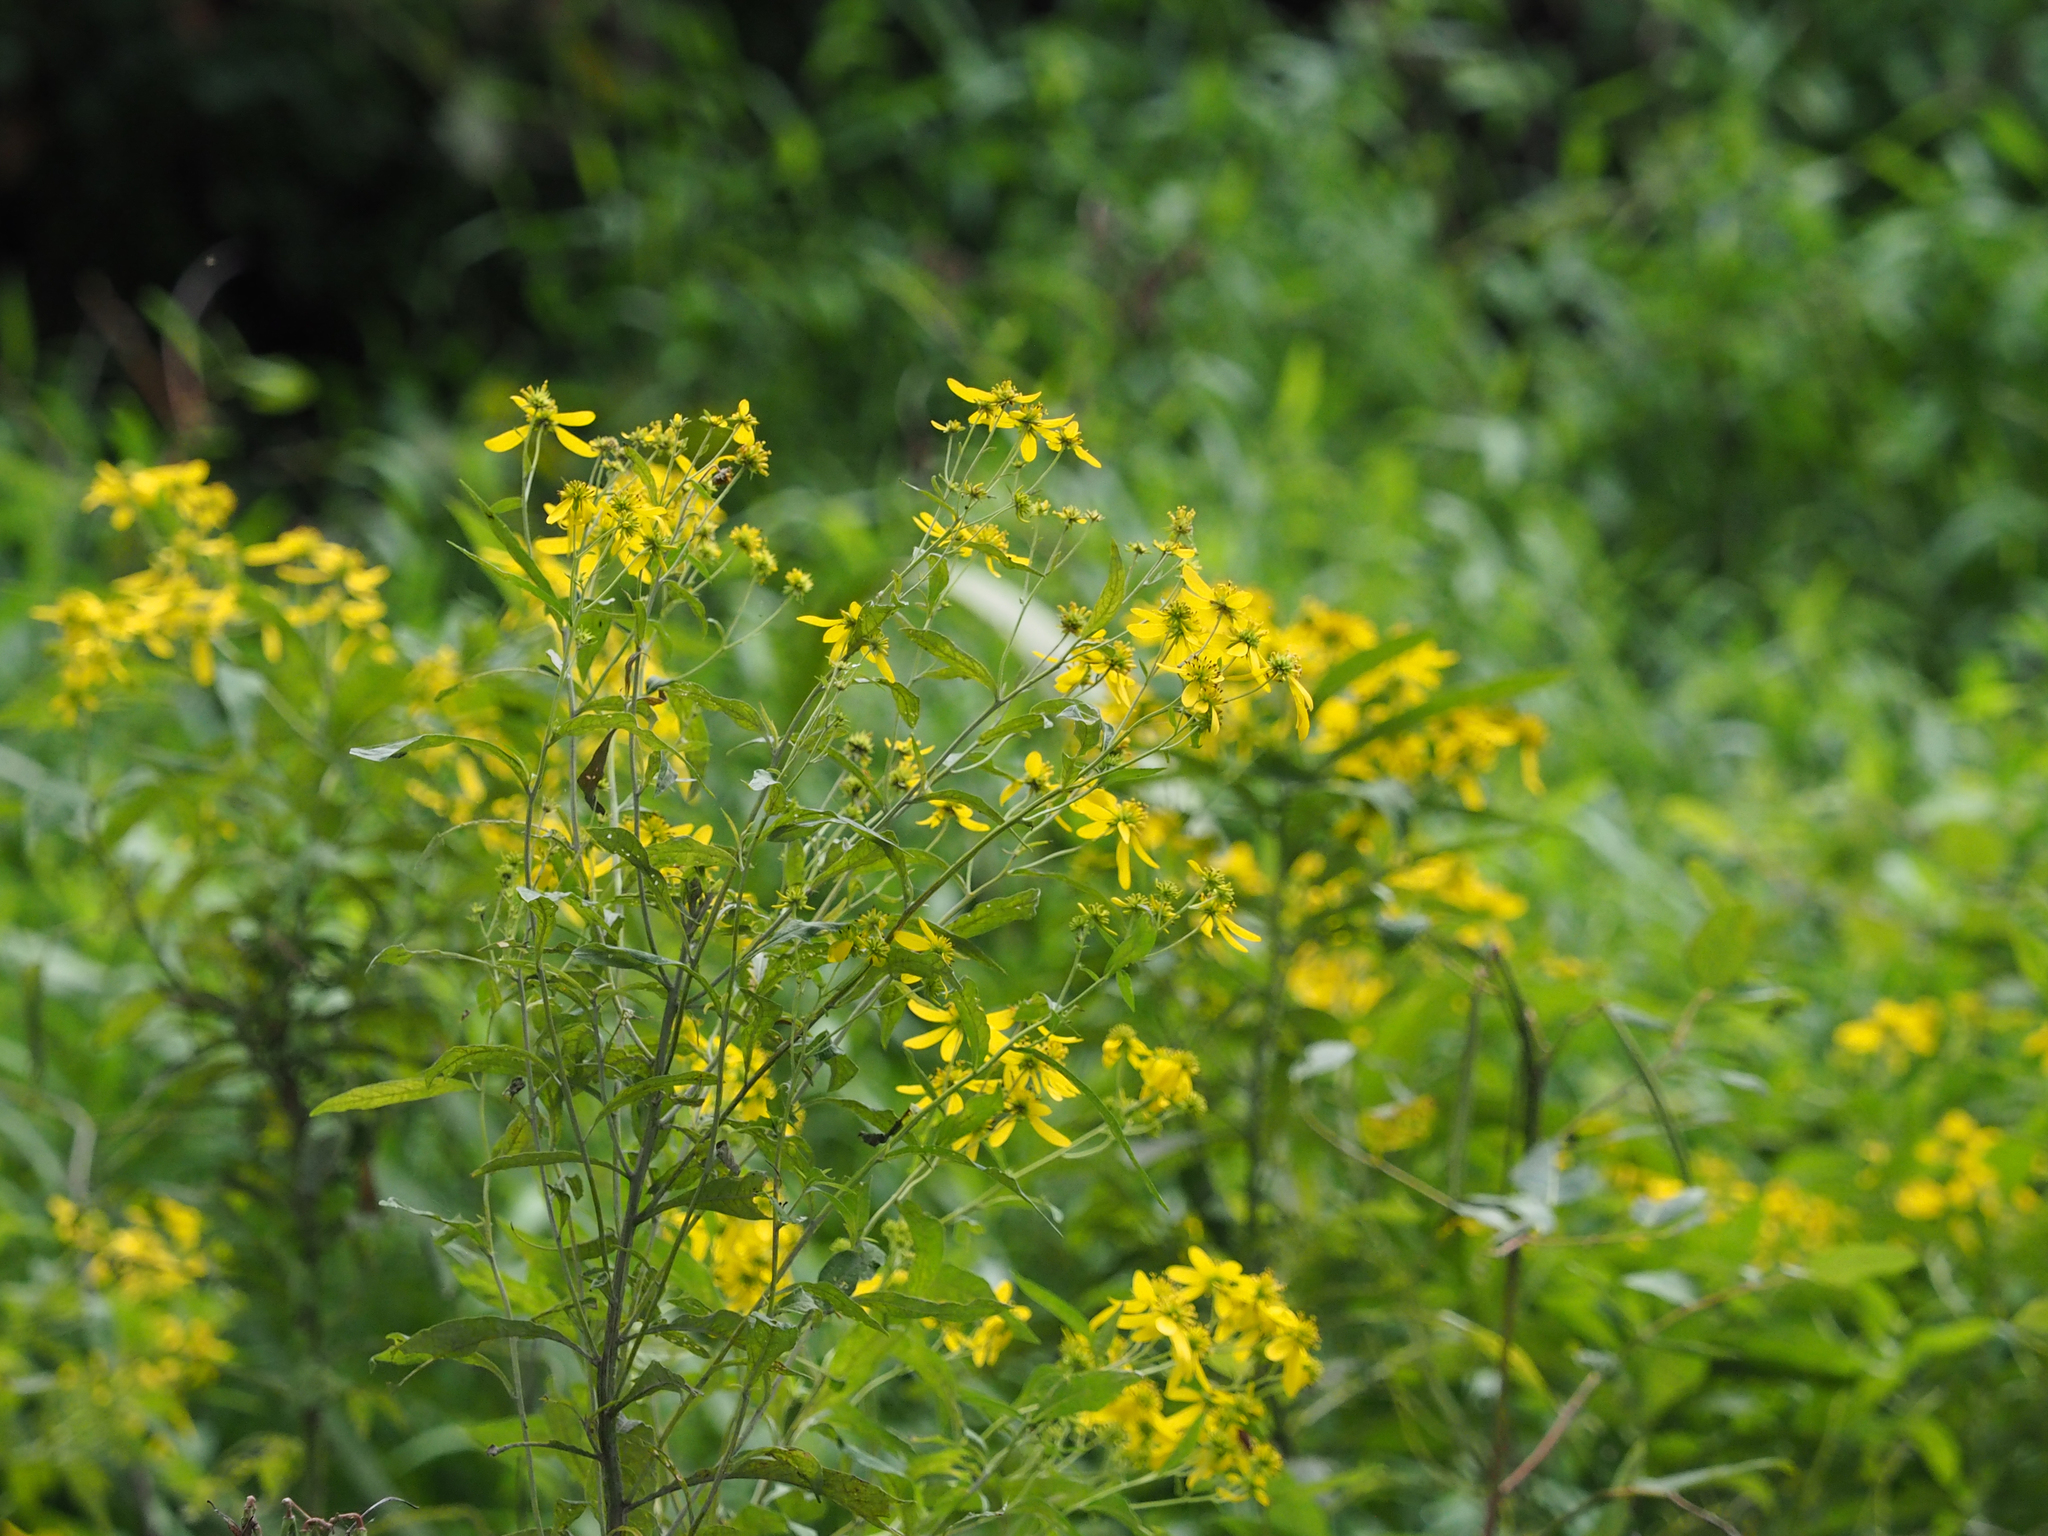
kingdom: Plantae
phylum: Tracheophyta
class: Magnoliopsida
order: Asterales
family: Asteraceae
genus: Verbesina
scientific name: Verbesina alternifolia
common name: Wingstem
